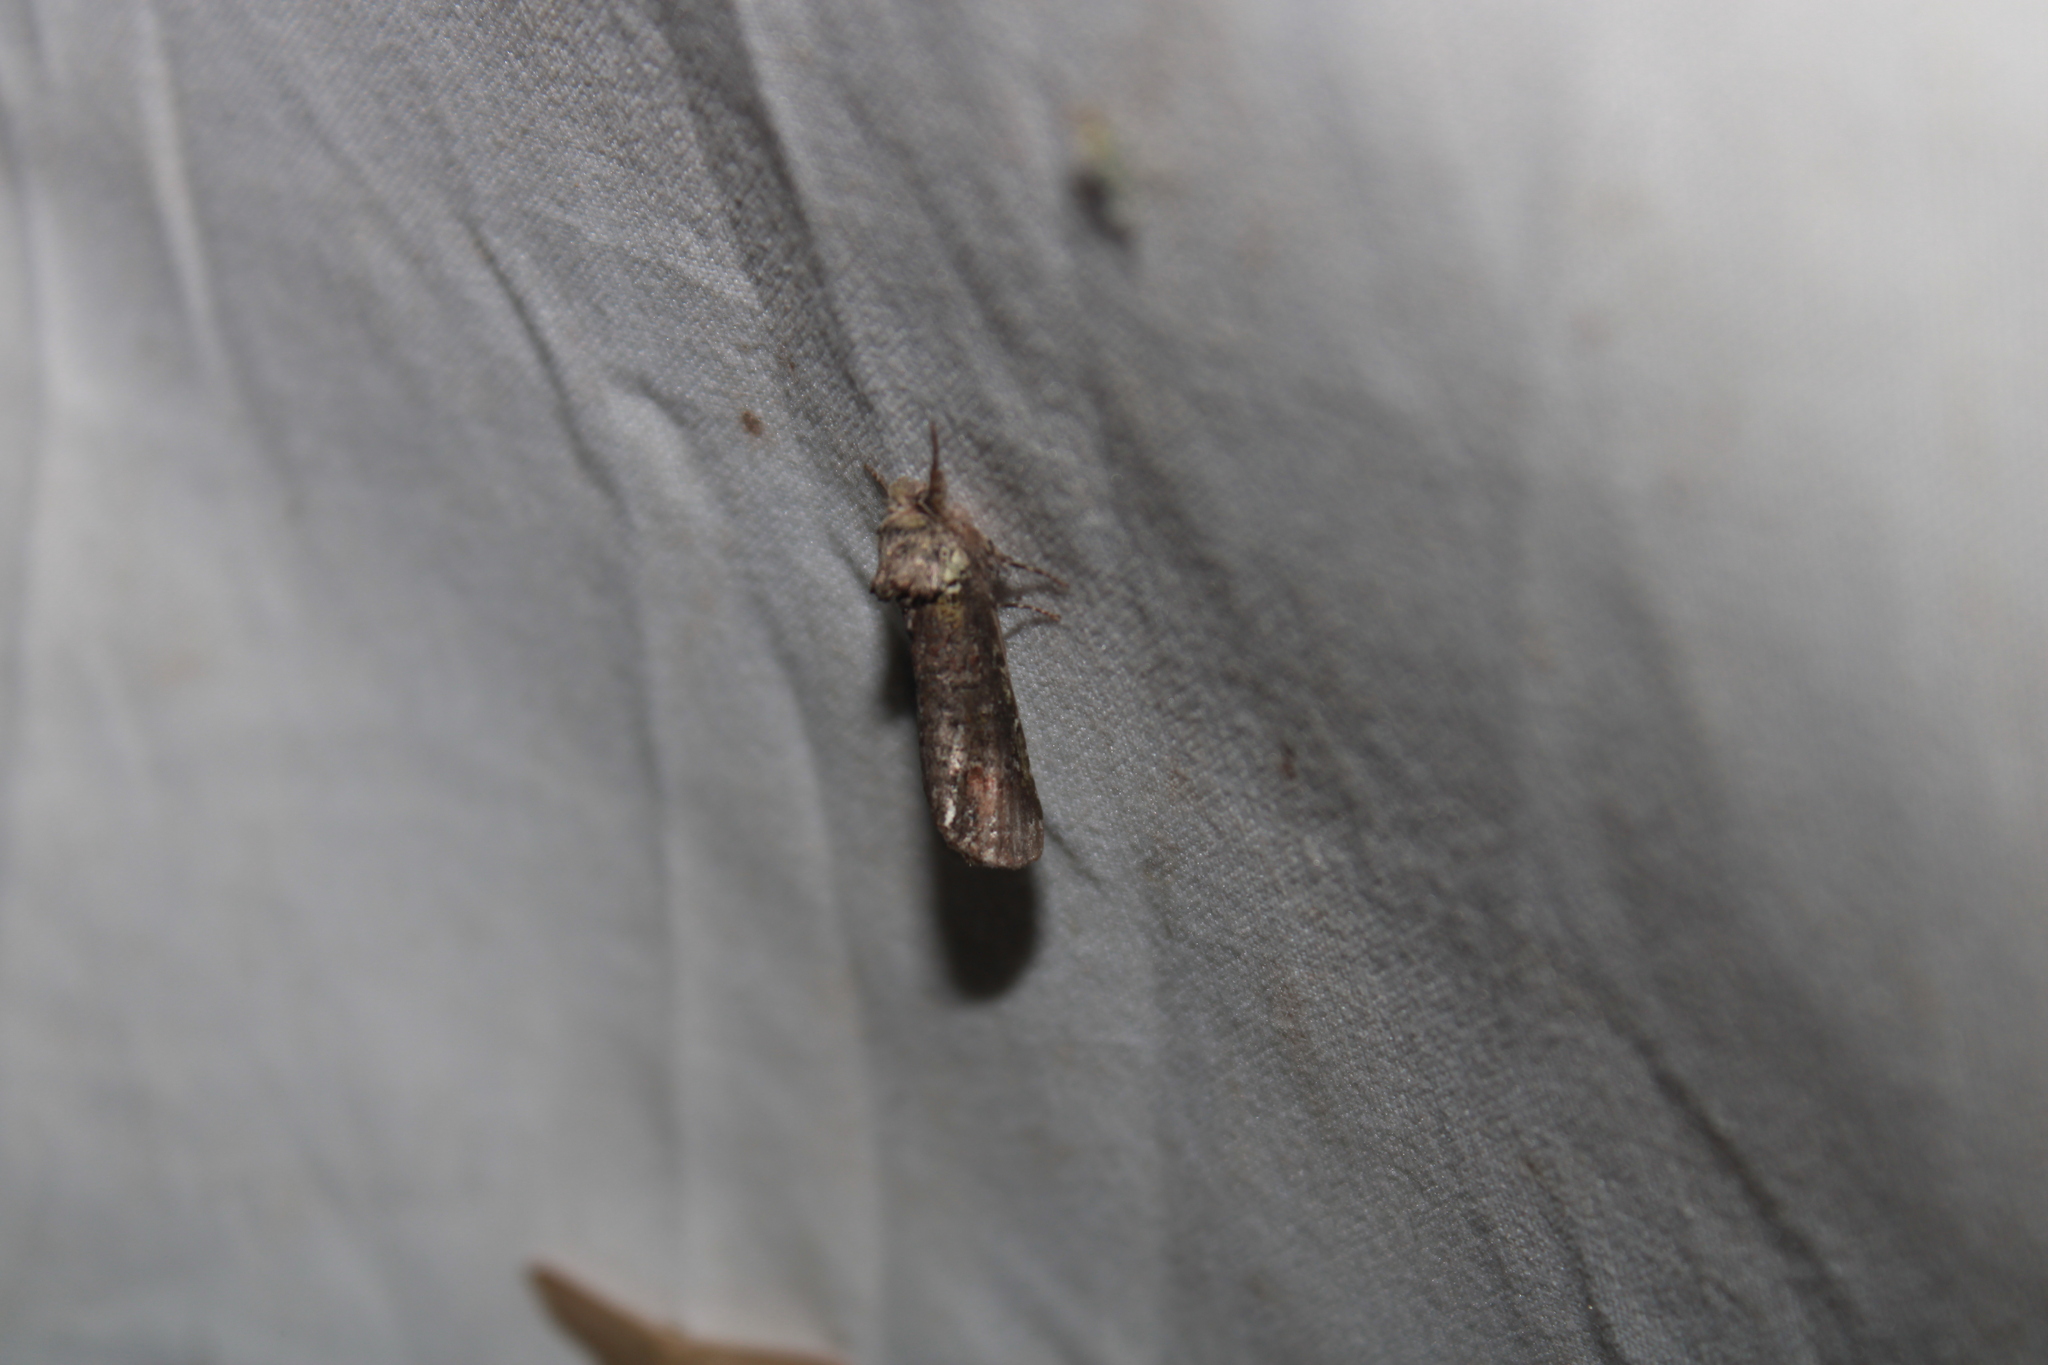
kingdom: Animalia
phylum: Arthropoda
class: Insecta
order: Lepidoptera
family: Notodontidae
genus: Schizura
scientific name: Schizura
